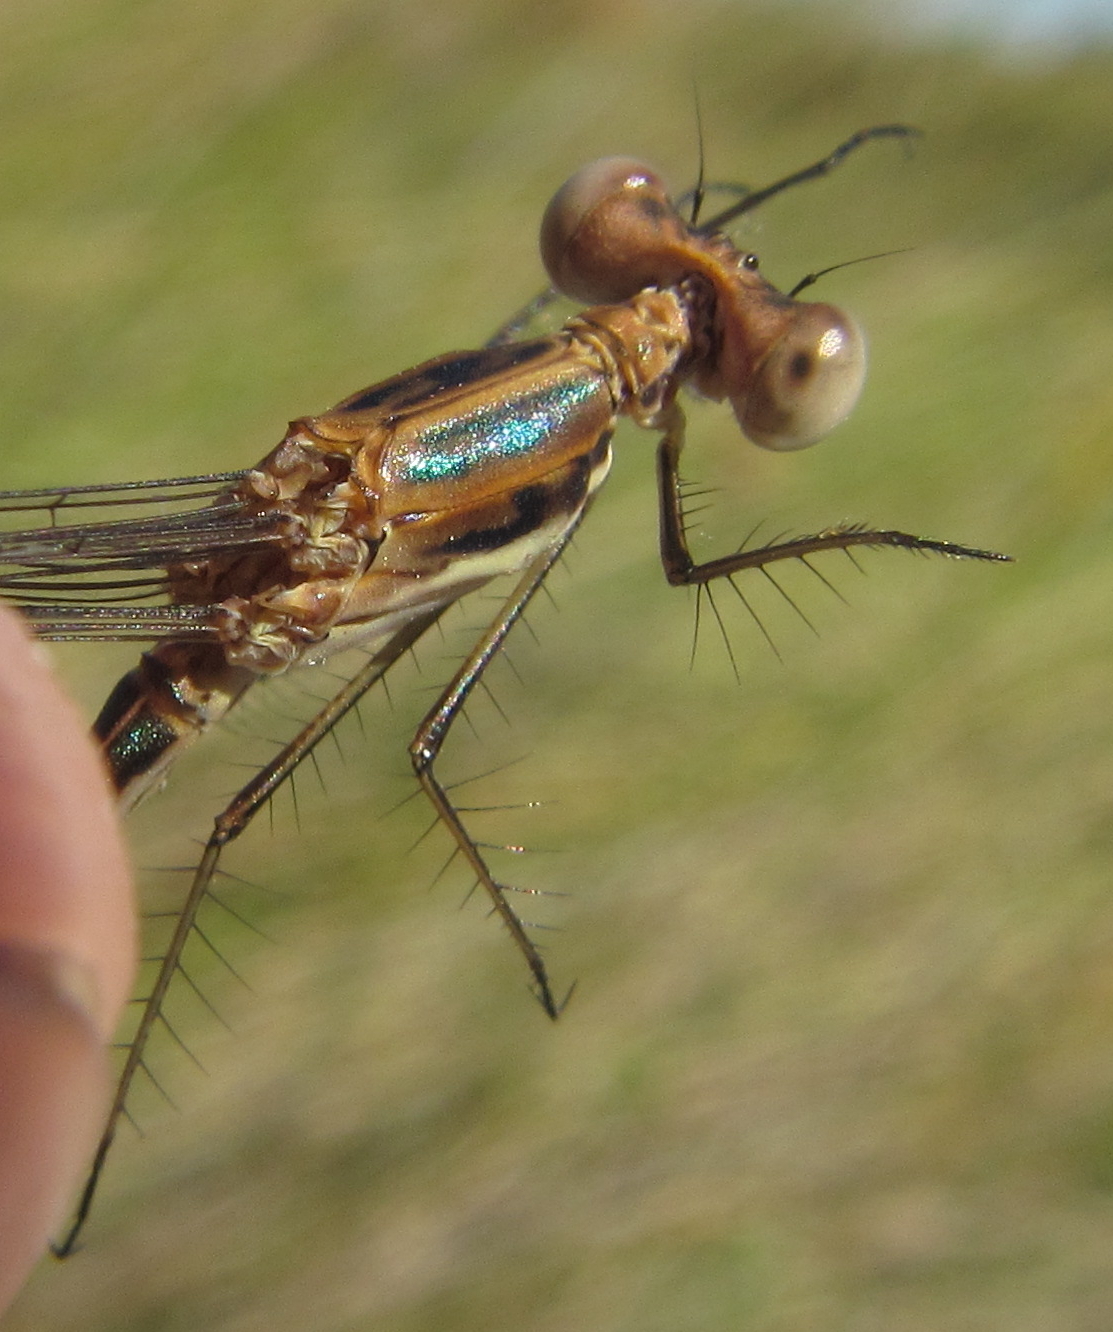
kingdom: Animalia
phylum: Arthropoda
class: Insecta
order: Odonata
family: Lestidae
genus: Lestes
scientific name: Lestes pinheyi
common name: Pinhey's spreadwing
